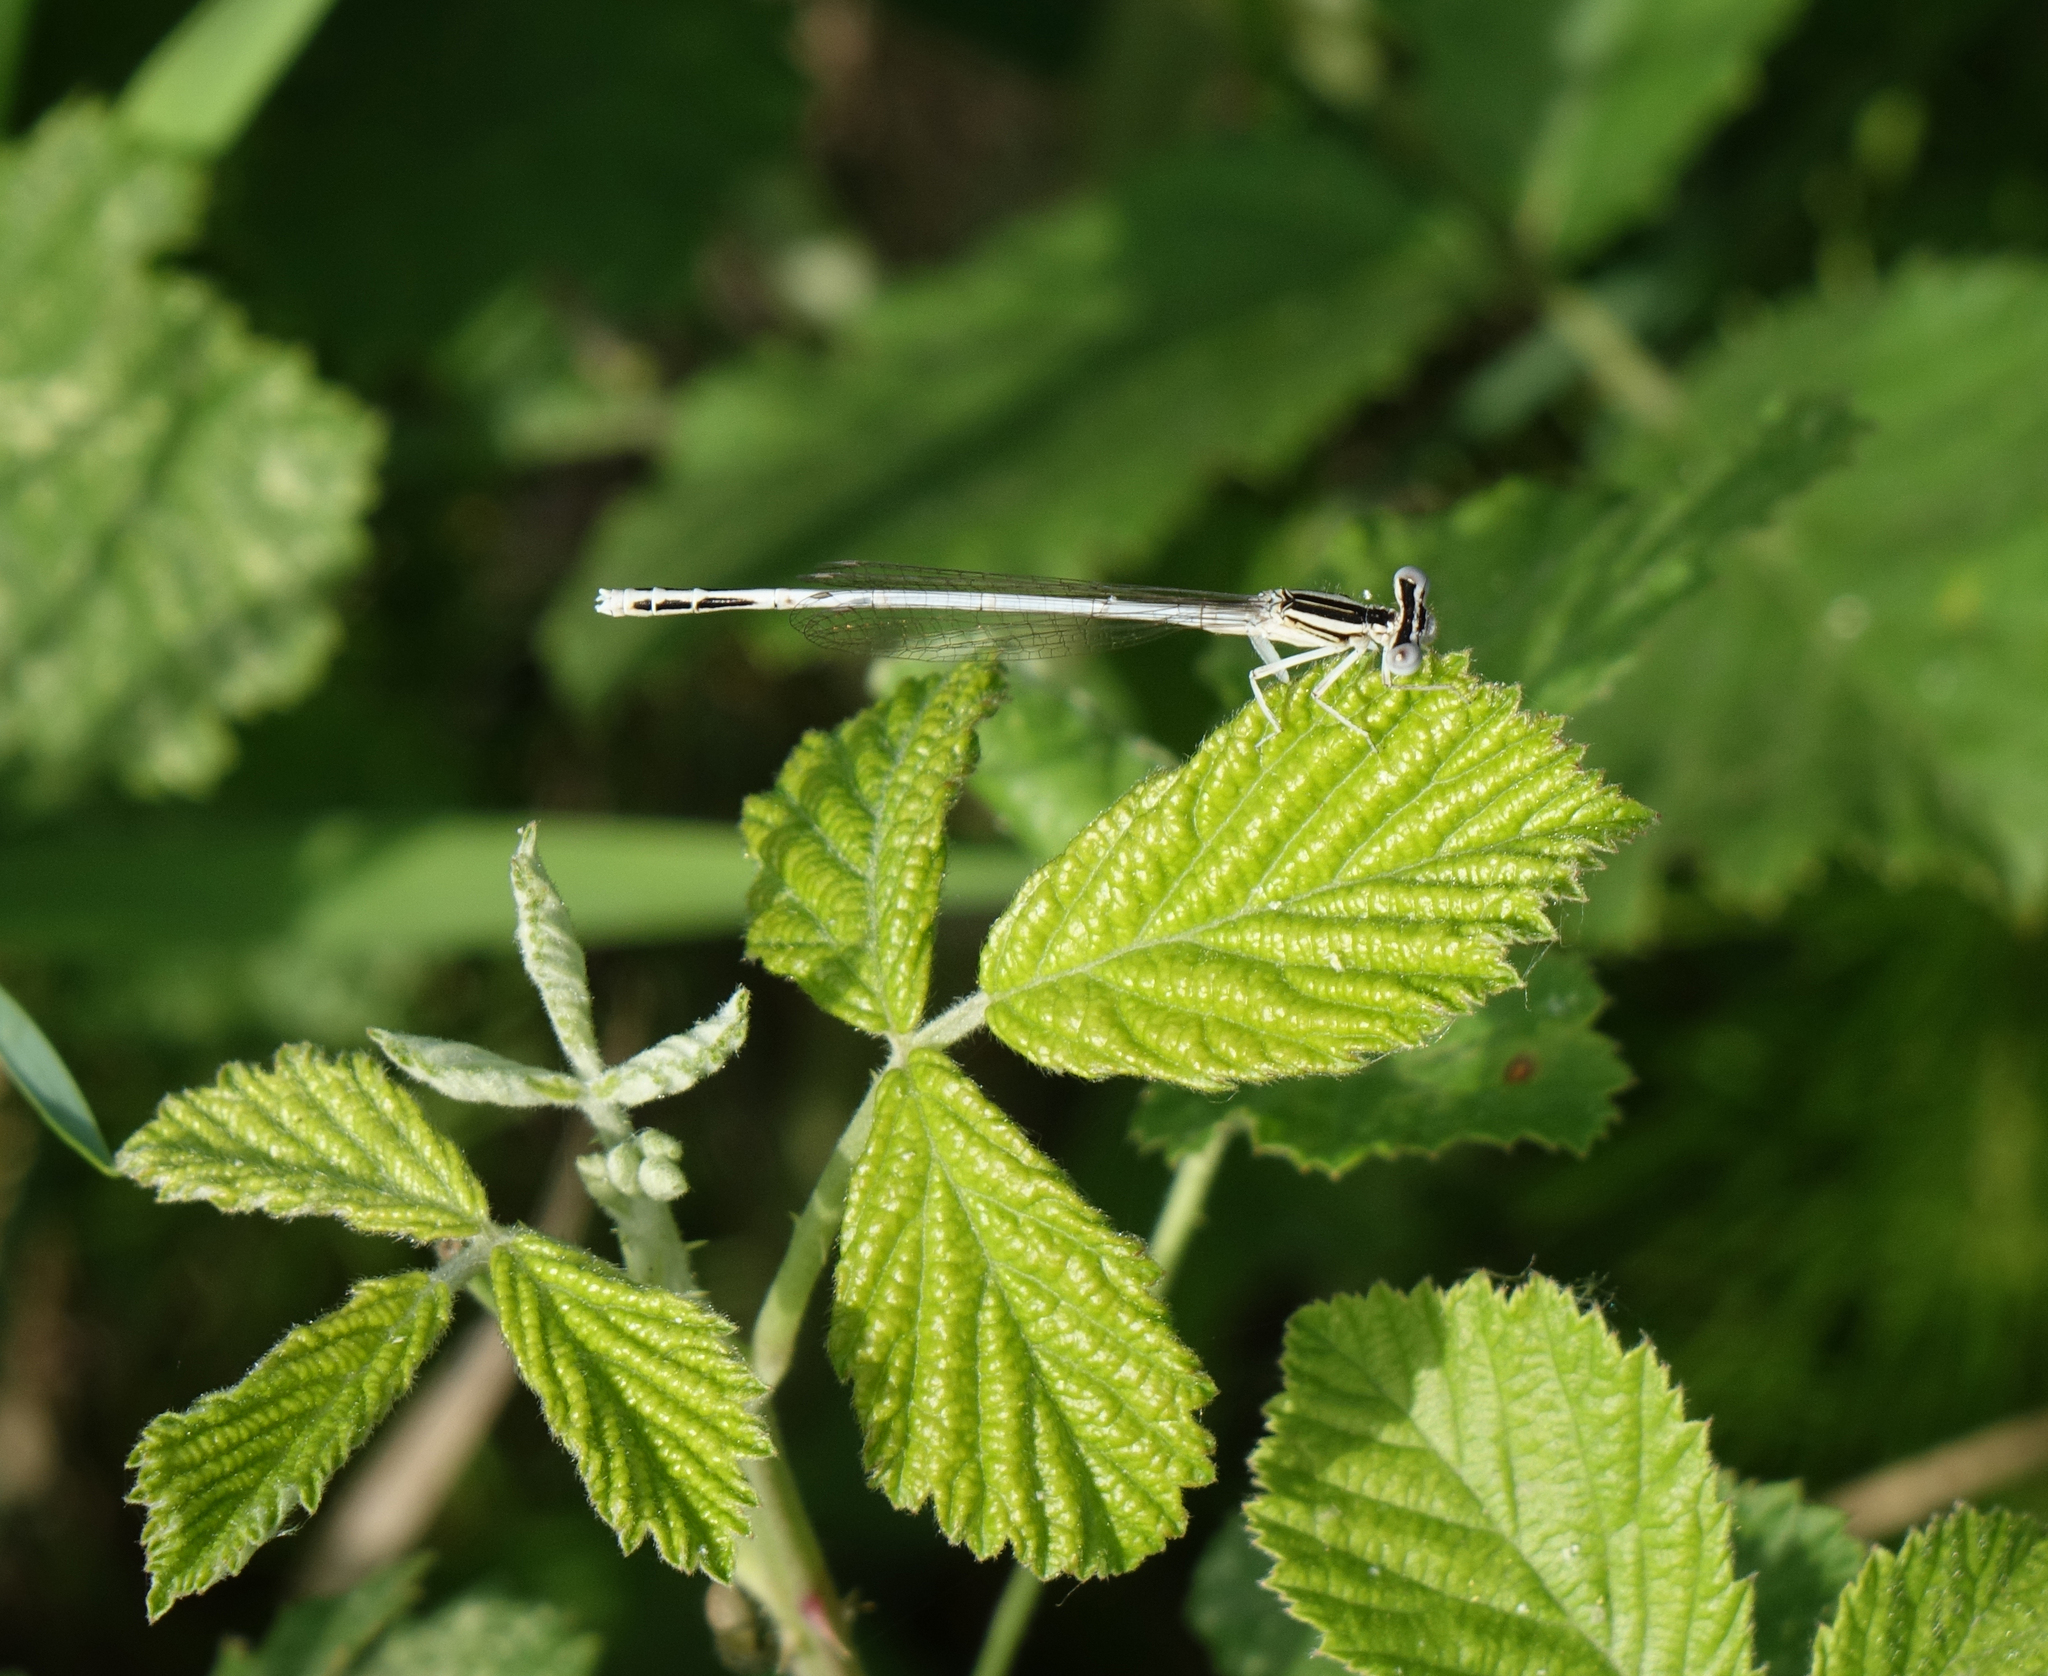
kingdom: Animalia
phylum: Arthropoda
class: Insecta
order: Odonata
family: Platycnemididae
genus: Platycnemis
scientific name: Platycnemis dealbata
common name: Ivory featherleg
